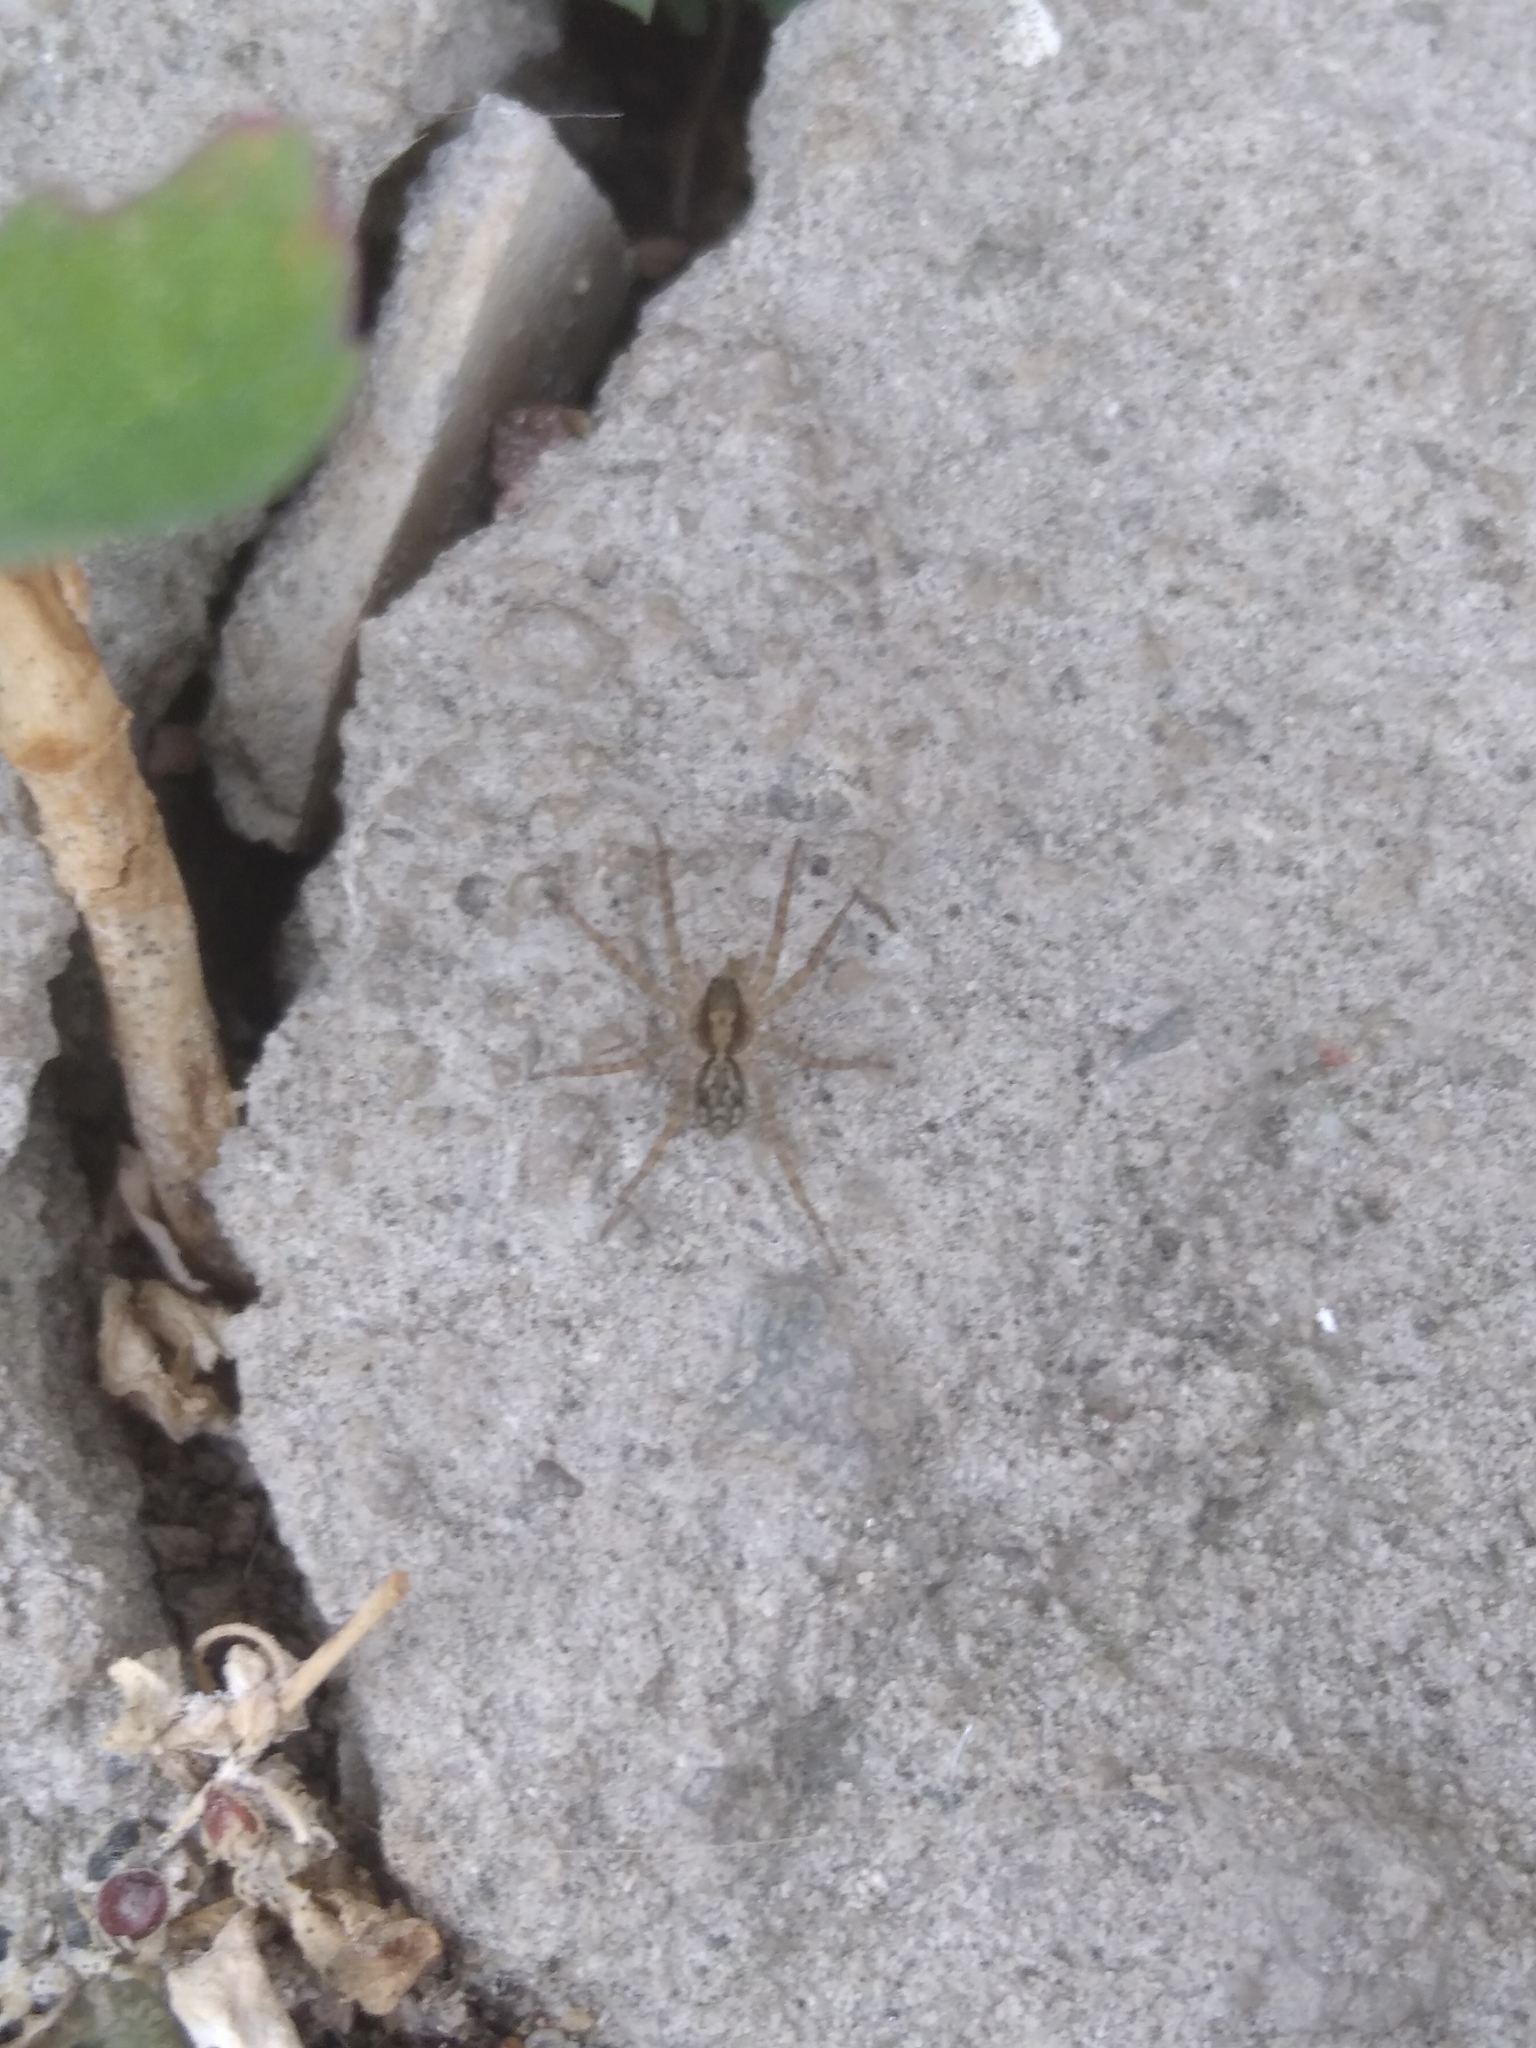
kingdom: Animalia
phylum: Arthropoda
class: Arachnida
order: Araneae
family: Agelenidae
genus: Tegenaria
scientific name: Tegenaria domestica
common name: Barn funnel weaver
